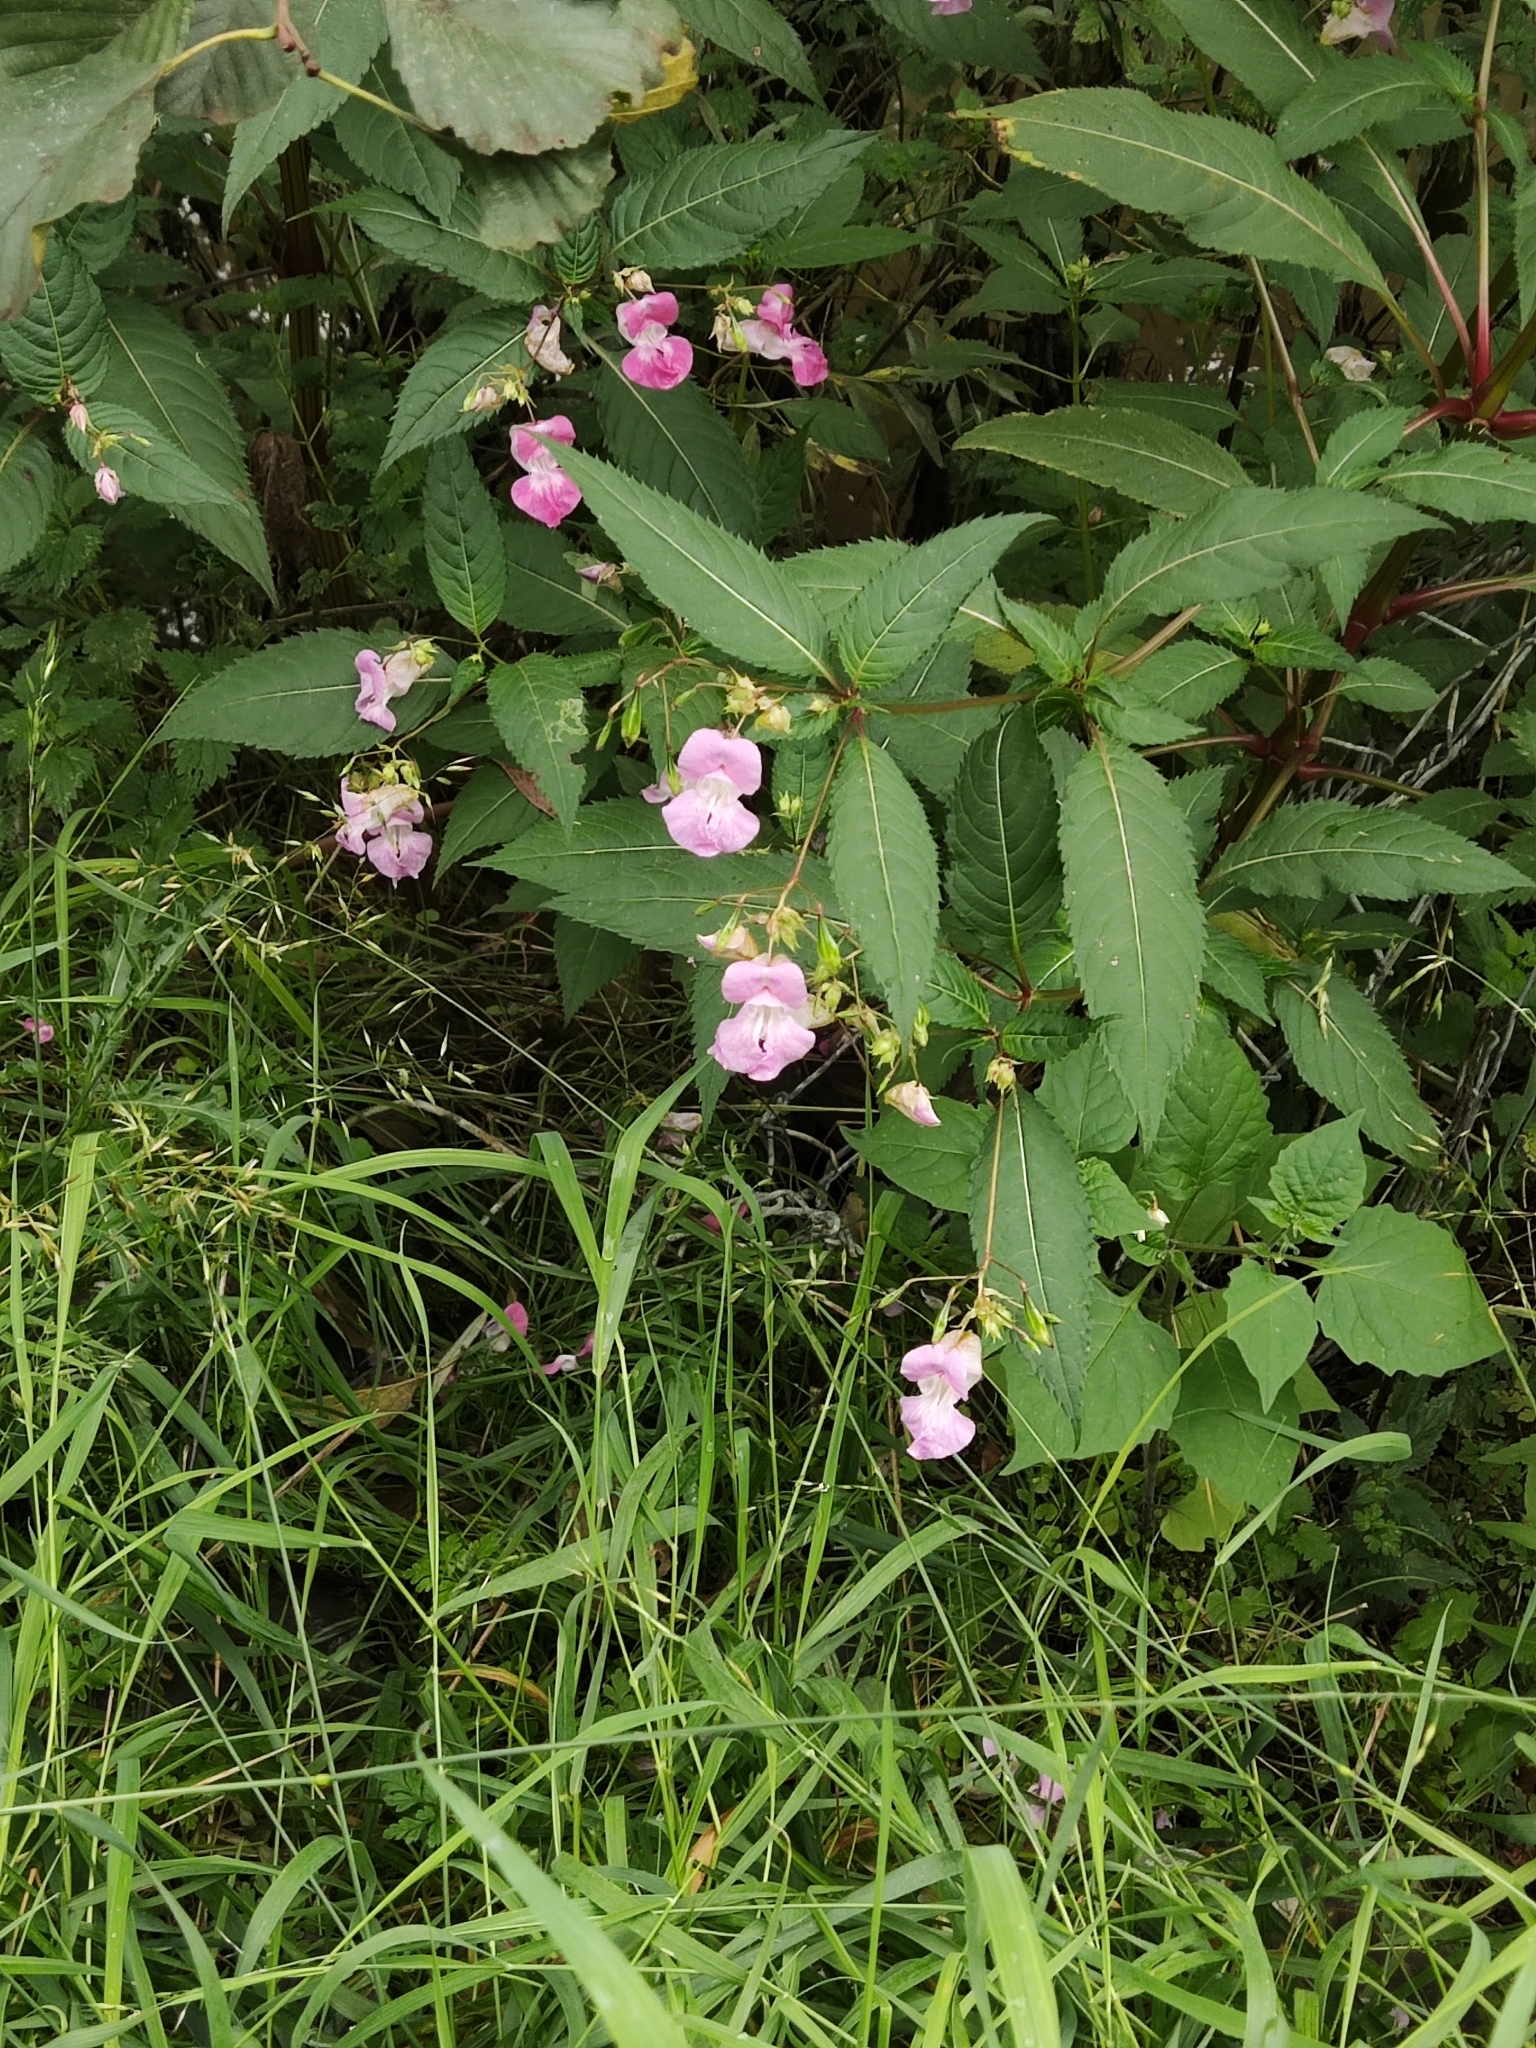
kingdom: Plantae
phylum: Tracheophyta
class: Magnoliopsida
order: Ericales
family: Balsaminaceae
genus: Impatiens
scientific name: Impatiens glandulifera
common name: Himalayan balsam
